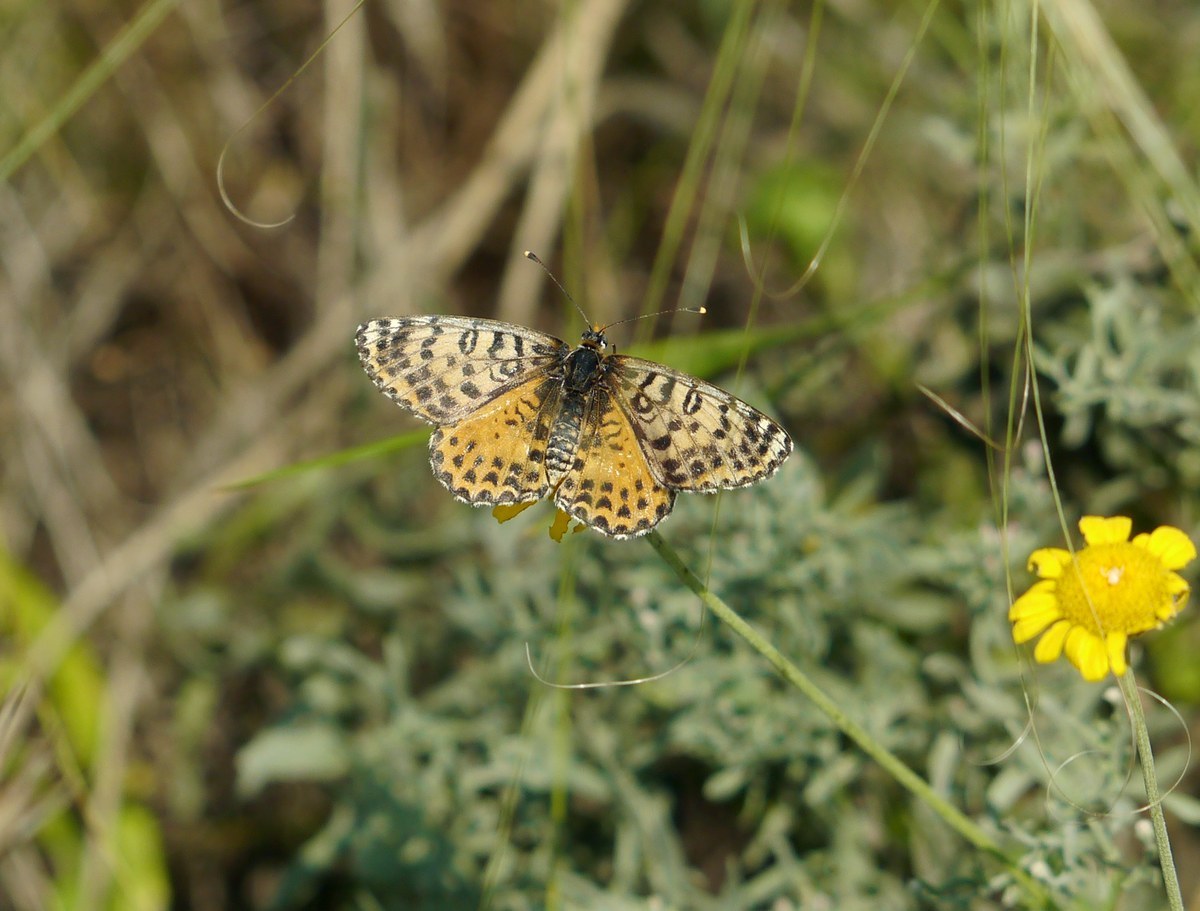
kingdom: Animalia
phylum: Arthropoda
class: Insecta
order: Lepidoptera
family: Nymphalidae
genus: Melitaea
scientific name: Melitaea didyma
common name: Spotted fritillary
